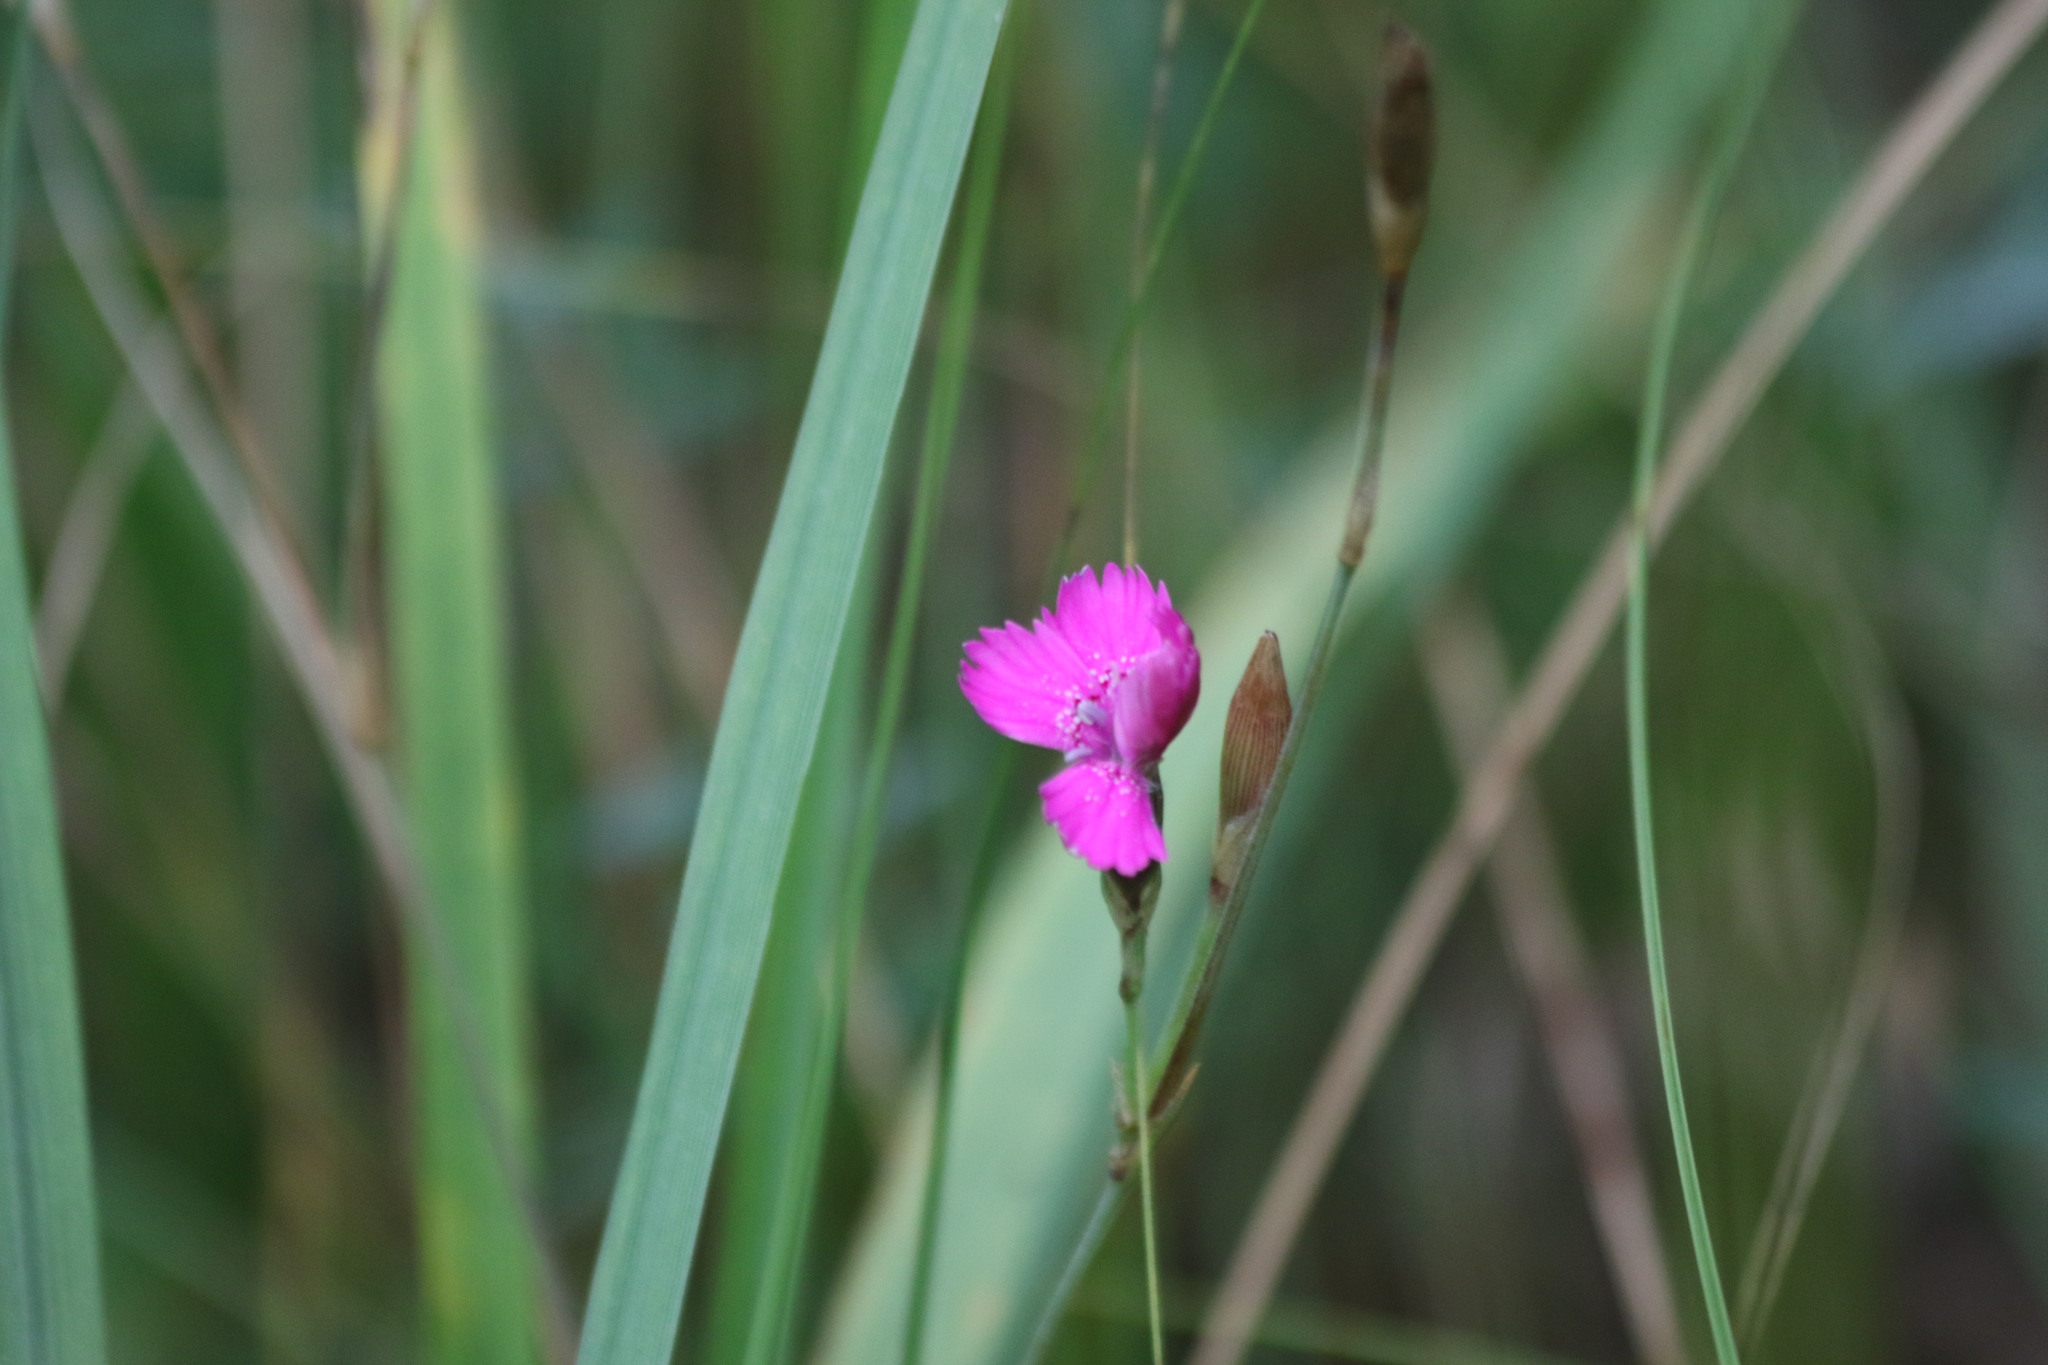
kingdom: Plantae
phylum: Tracheophyta
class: Magnoliopsida
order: Caryophyllales
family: Caryophyllaceae
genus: Dianthus
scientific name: Dianthus deltoides
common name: Maiden pink
